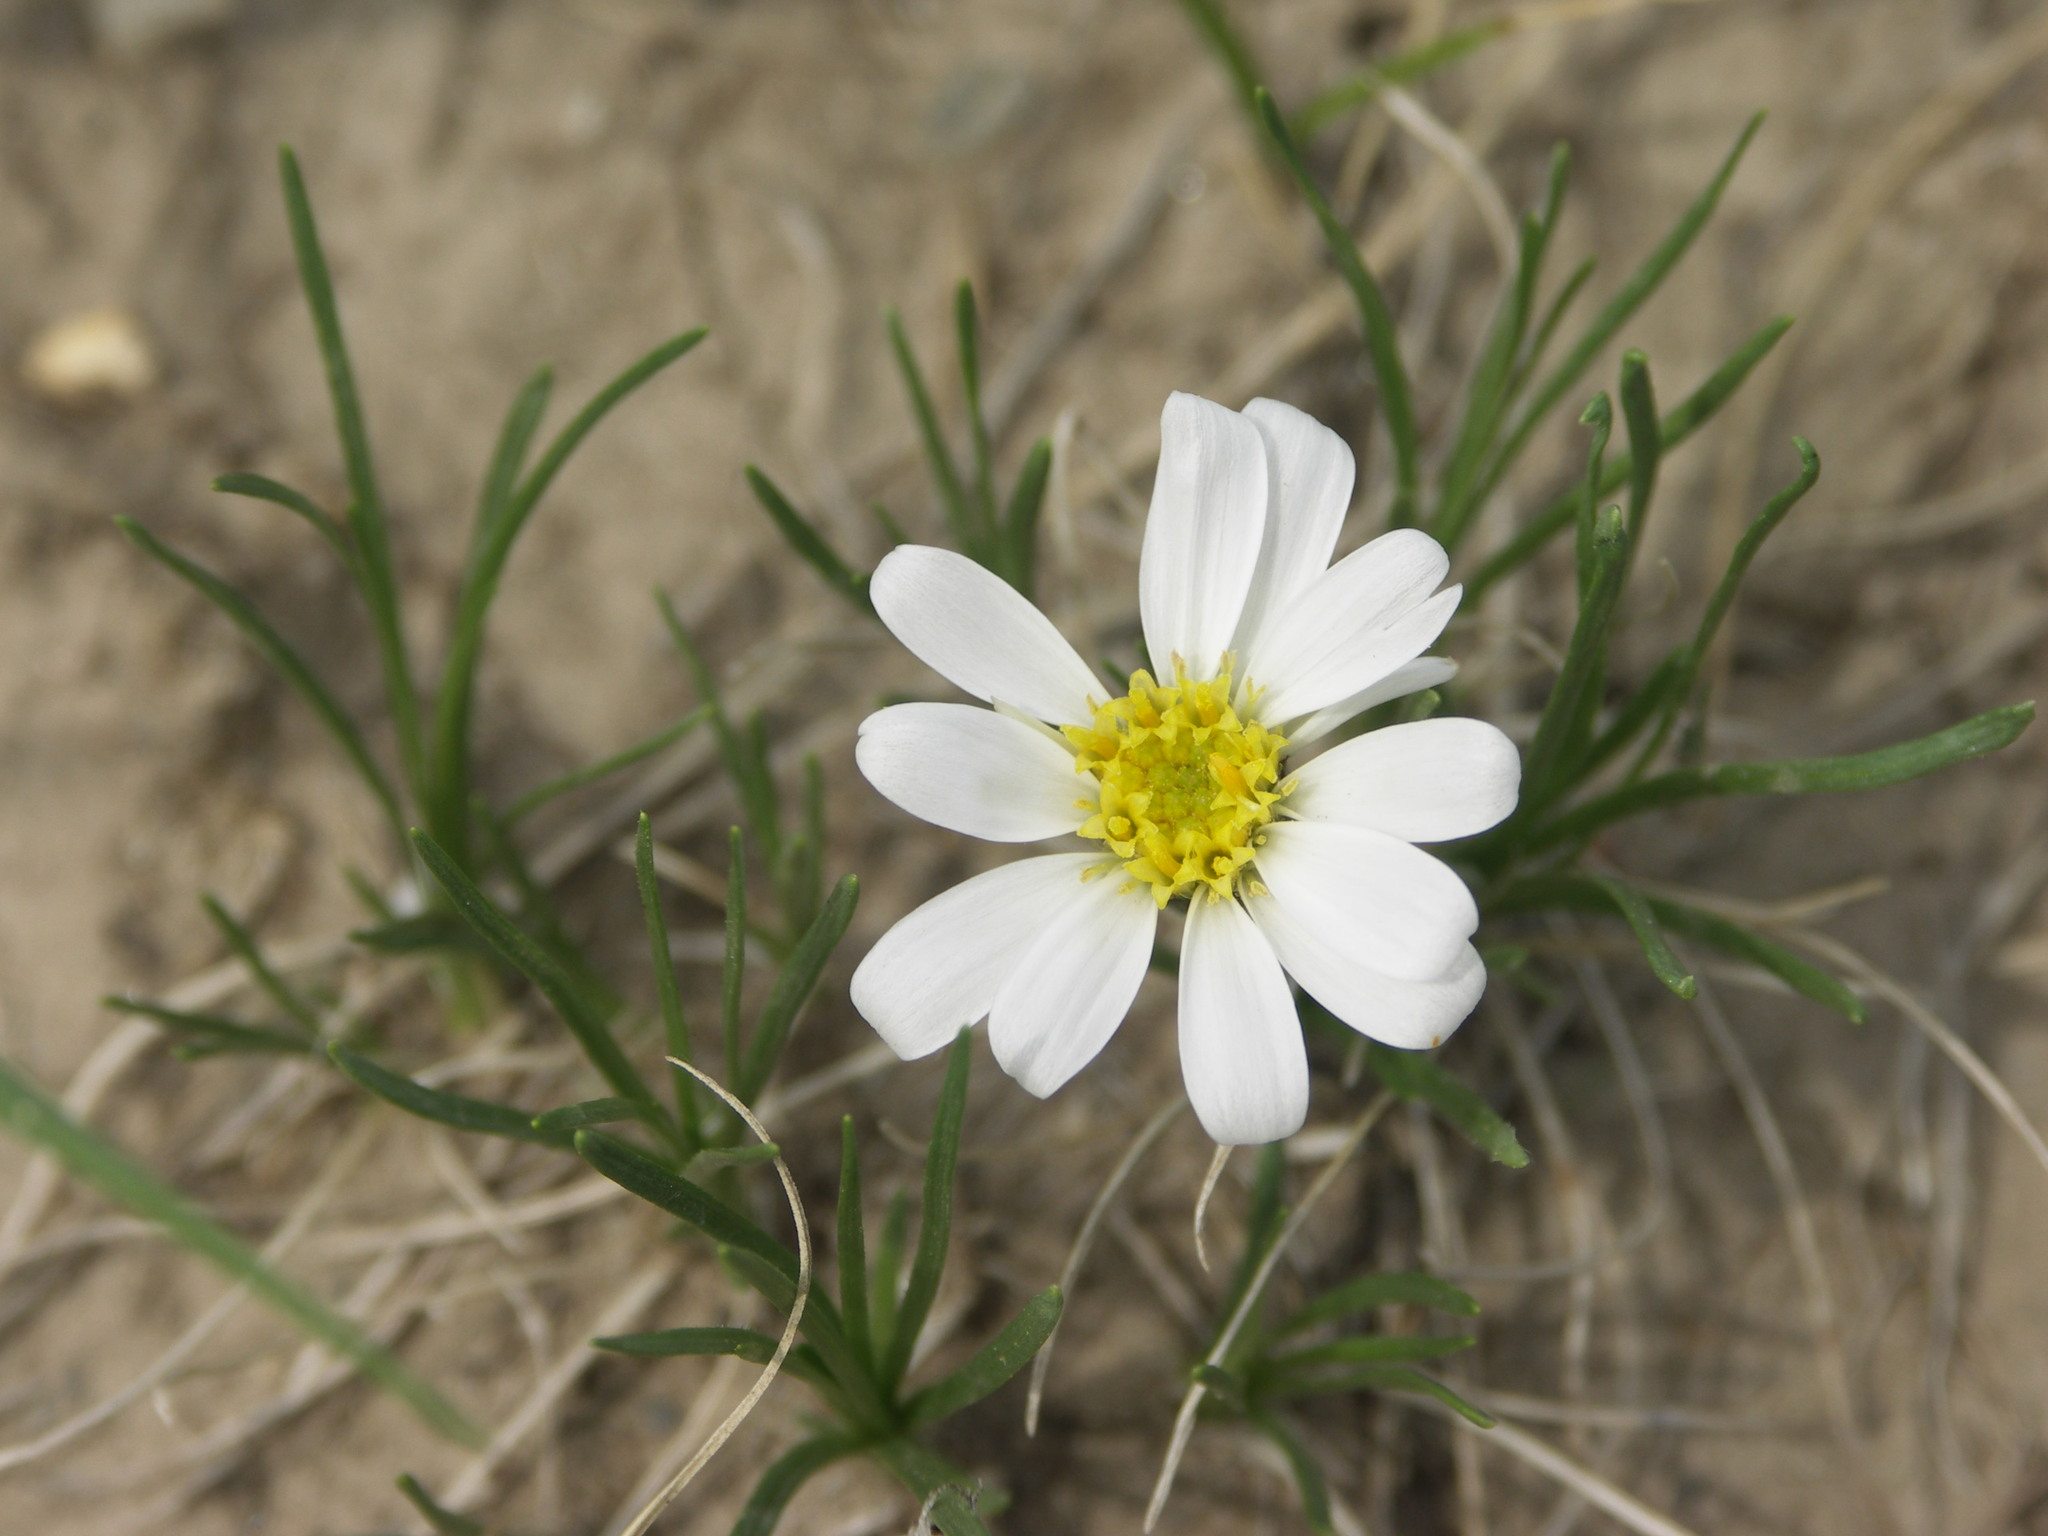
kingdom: Plantae
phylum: Tracheophyta
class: Magnoliopsida
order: Asterales
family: Asteraceae
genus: Arctogeron
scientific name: Arctogeron gramineum
